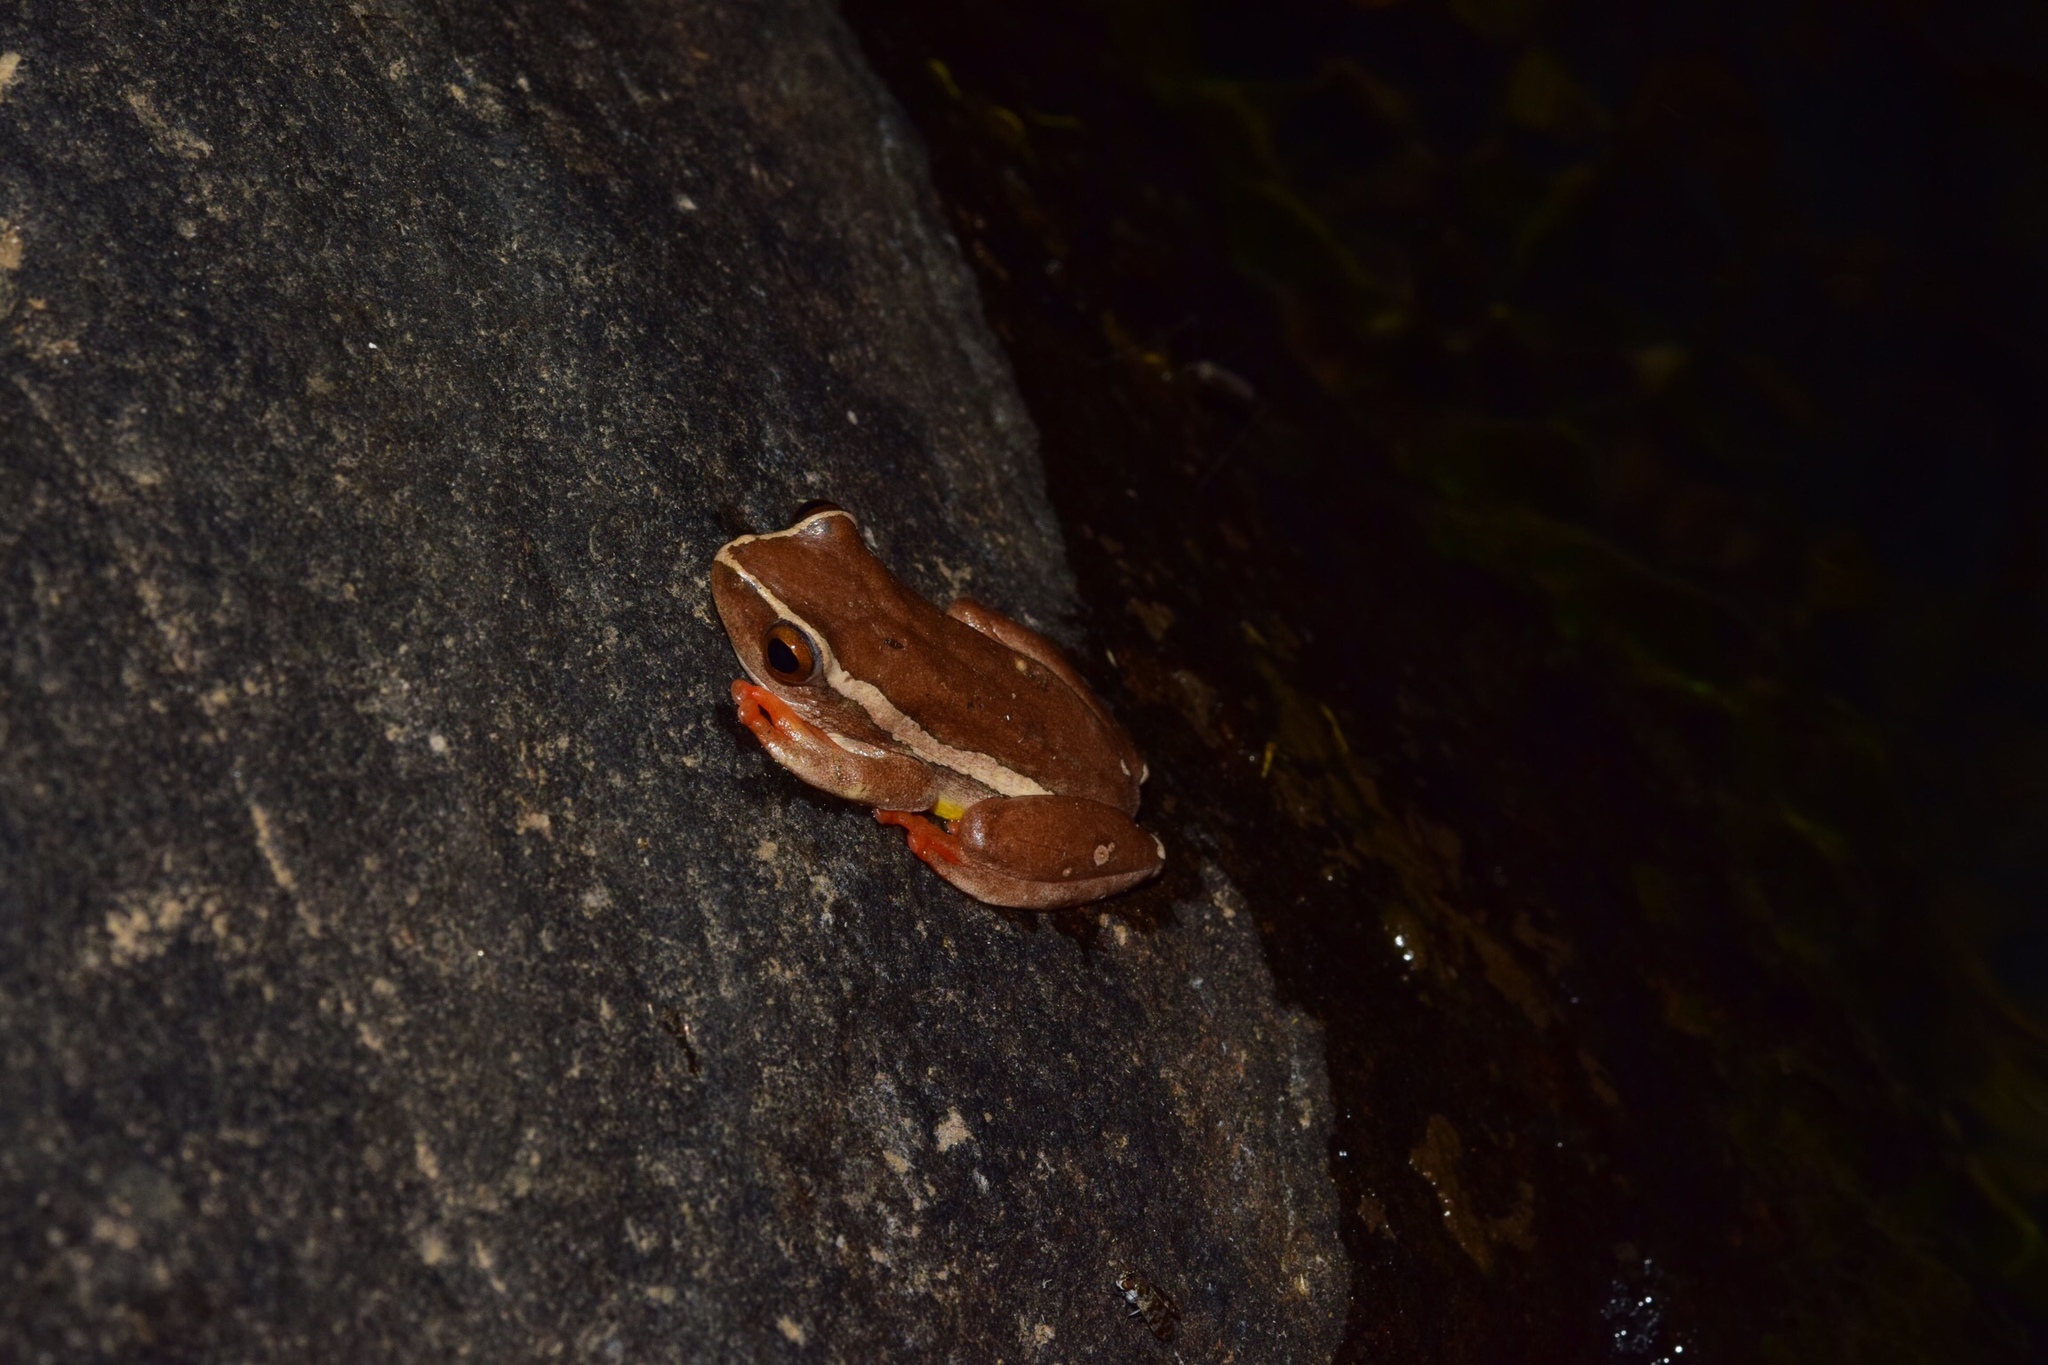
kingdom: Animalia
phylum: Chordata
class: Amphibia
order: Anura
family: Hyperoliidae
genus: Hyperolius
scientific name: Hyperolius semidiscus
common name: Yellow-striped reed frog
